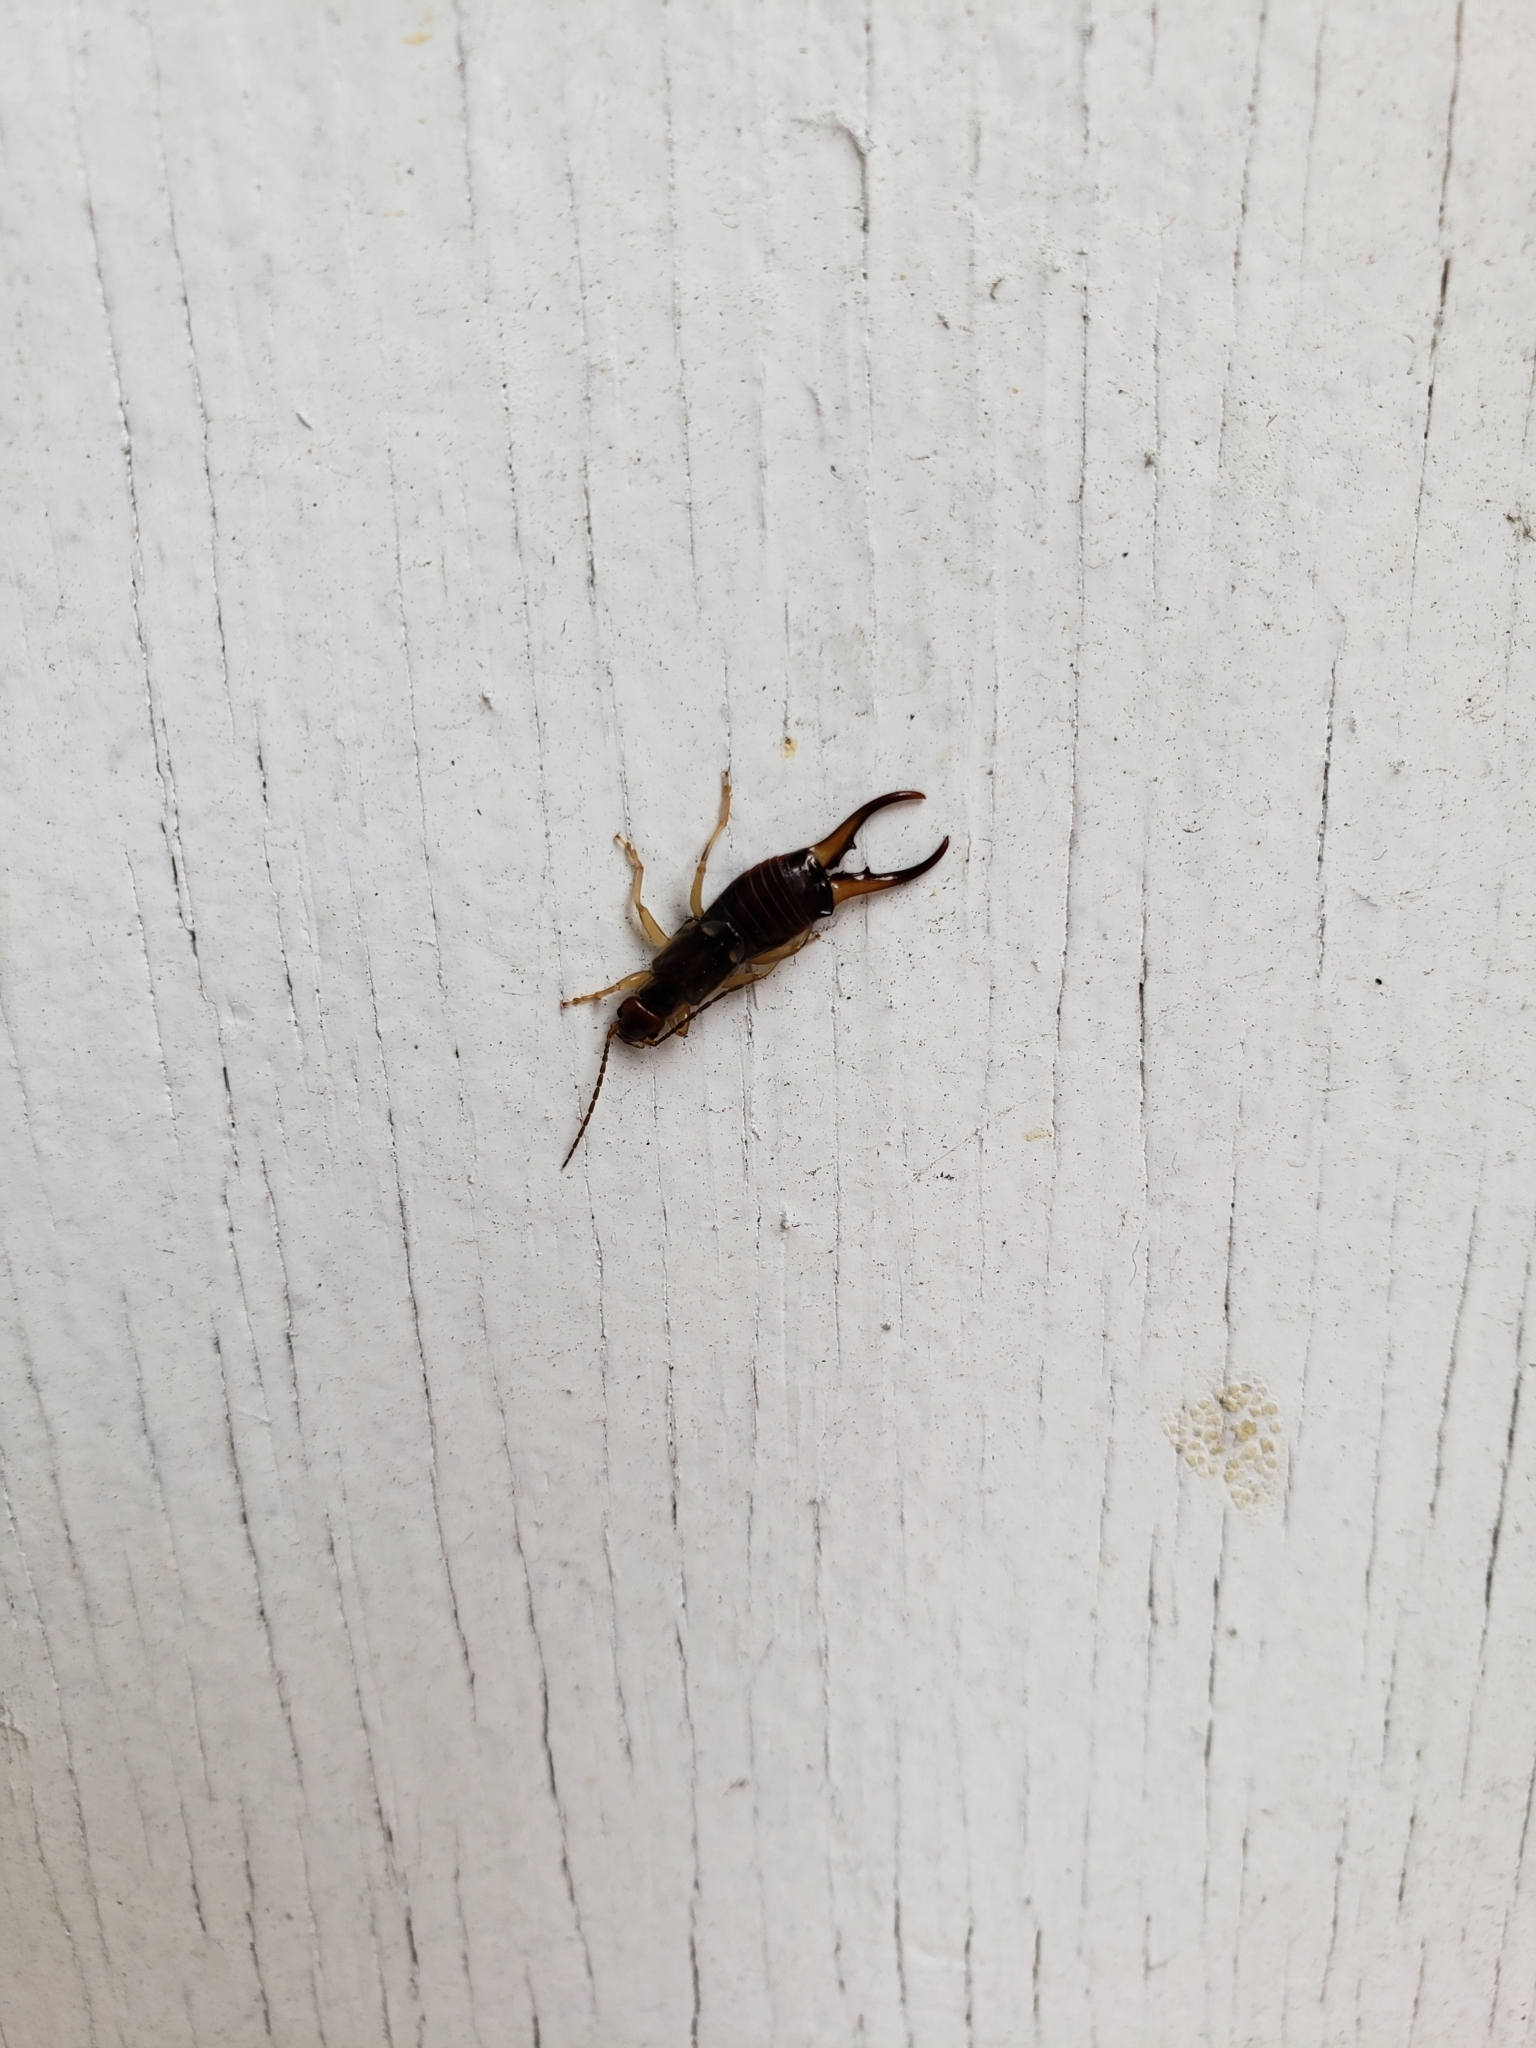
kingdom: Animalia
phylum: Arthropoda
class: Insecta
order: Dermaptera
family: Forficulidae
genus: Forficula
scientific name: Forficula
